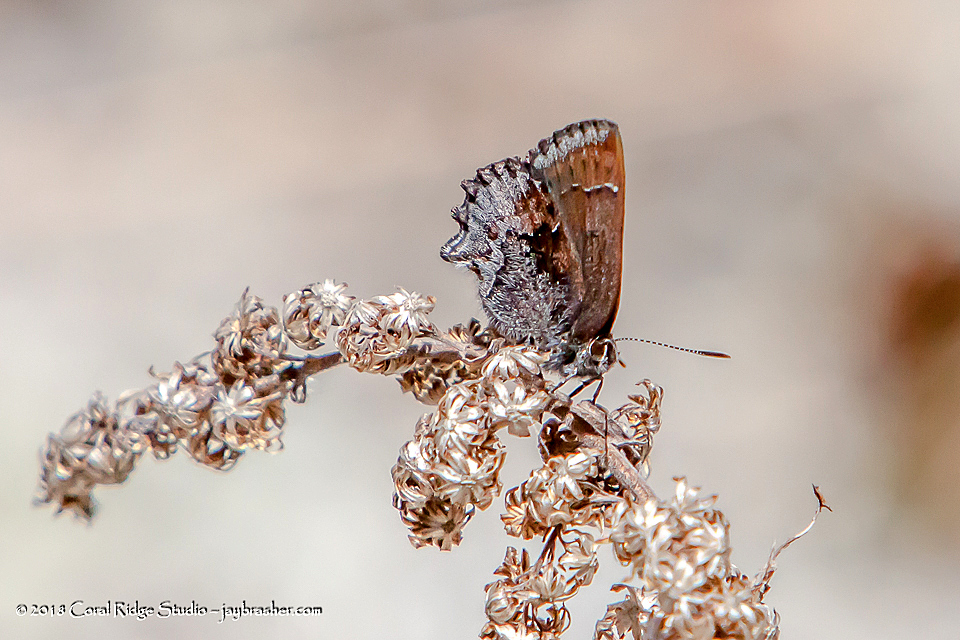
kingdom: Animalia
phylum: Arthropoda
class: Insecta
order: Lepidoptera
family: Lycaenidae
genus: Callophrys
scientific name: Callophrys polios
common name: Hoary elfin
